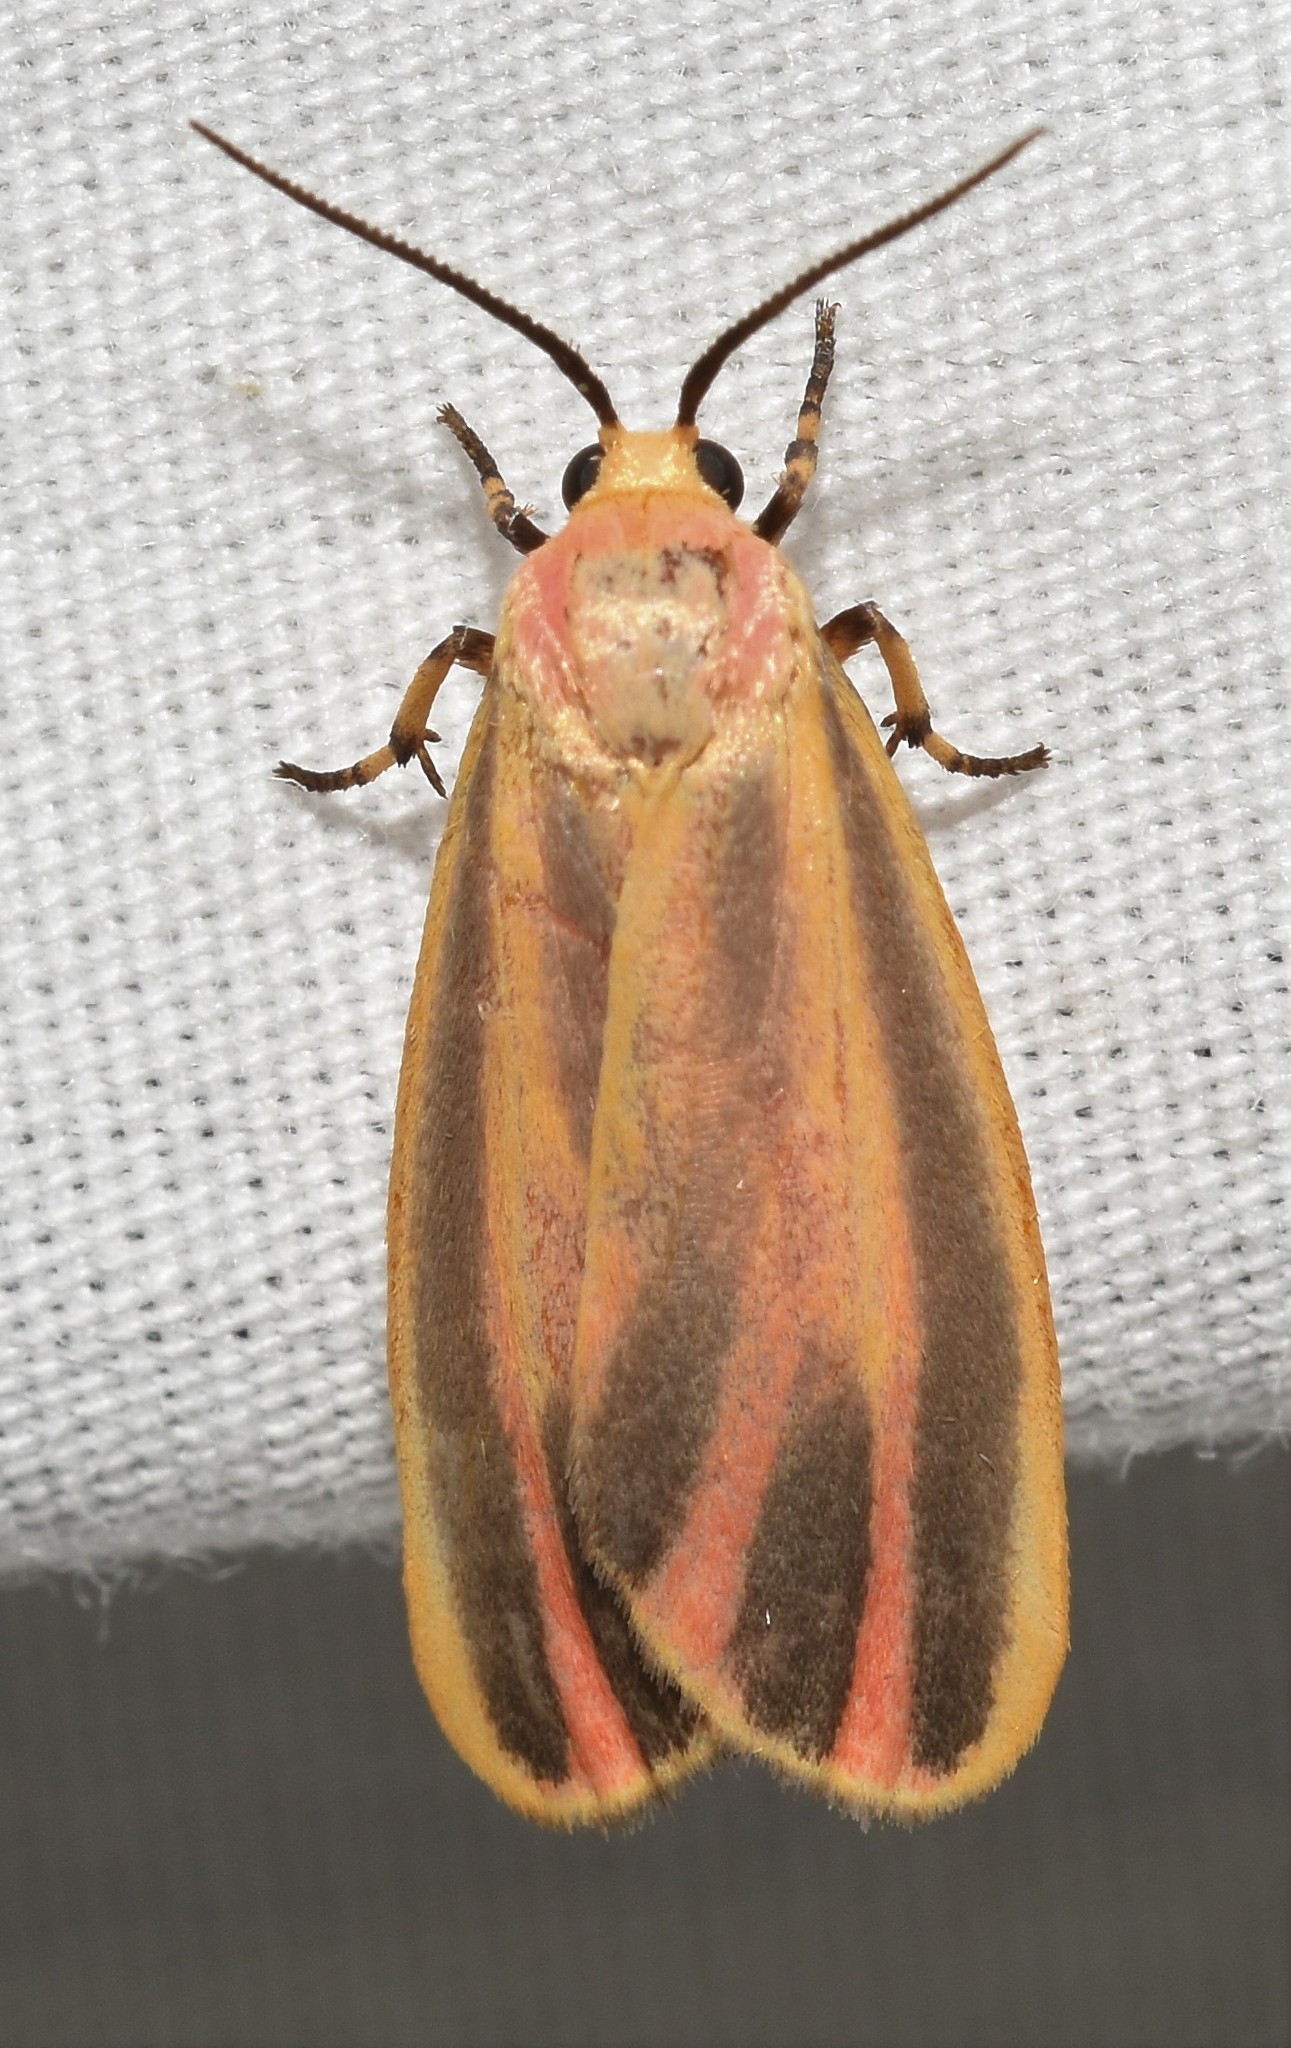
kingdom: Animalia
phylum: Arthropoda
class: Insecta
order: Lepidoptera
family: Erebidae
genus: Hypoprepia
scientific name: Hypoprepia fucosa
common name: Painted lichen moth
